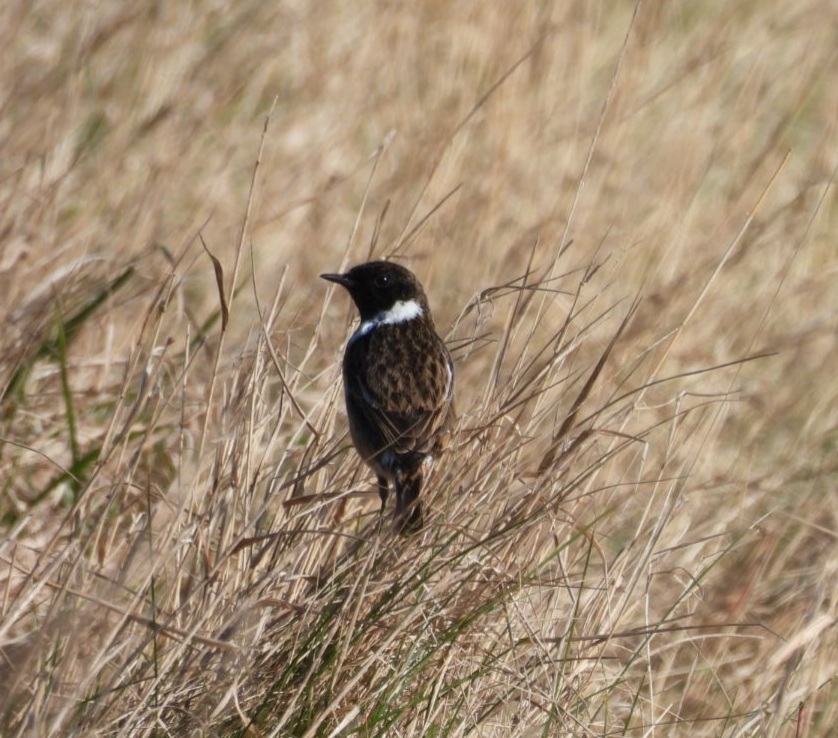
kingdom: Animalia
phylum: Chordata
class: Aves
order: Passeriformes
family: Muscicapidae
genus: Saxicola
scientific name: Saxicola rubicola
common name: European stonechat
